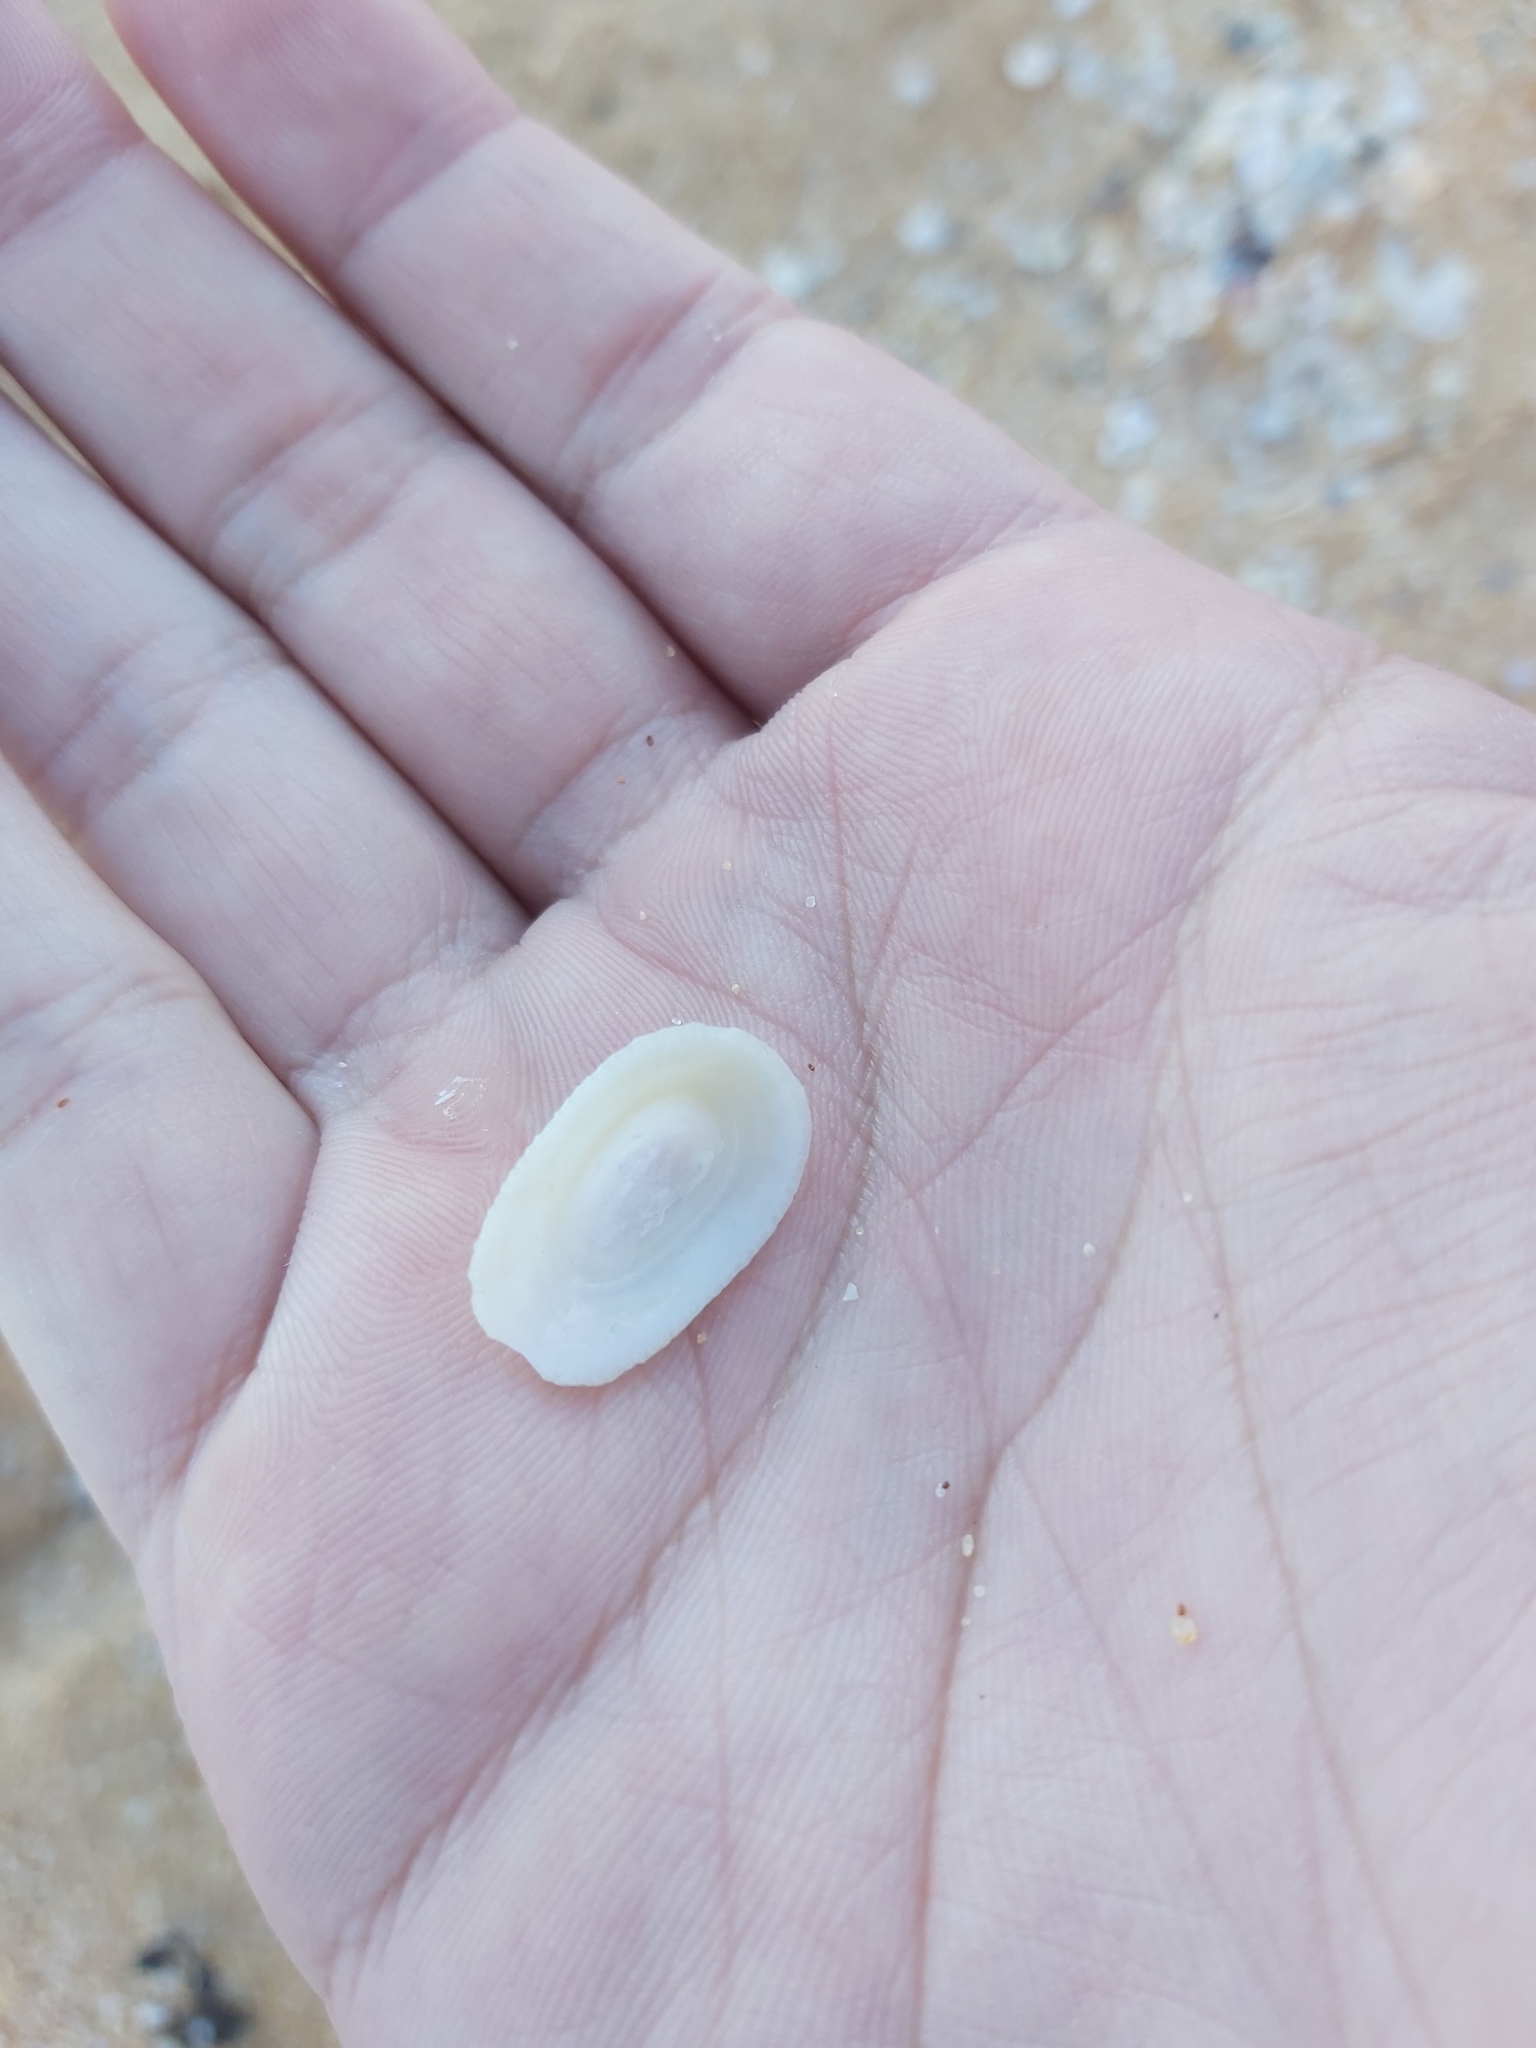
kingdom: Animalia
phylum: Mollusca
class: Gastropoda
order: Lepetellida
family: Fissurellidae
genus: Tugali
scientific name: Tugali parmophoidea
